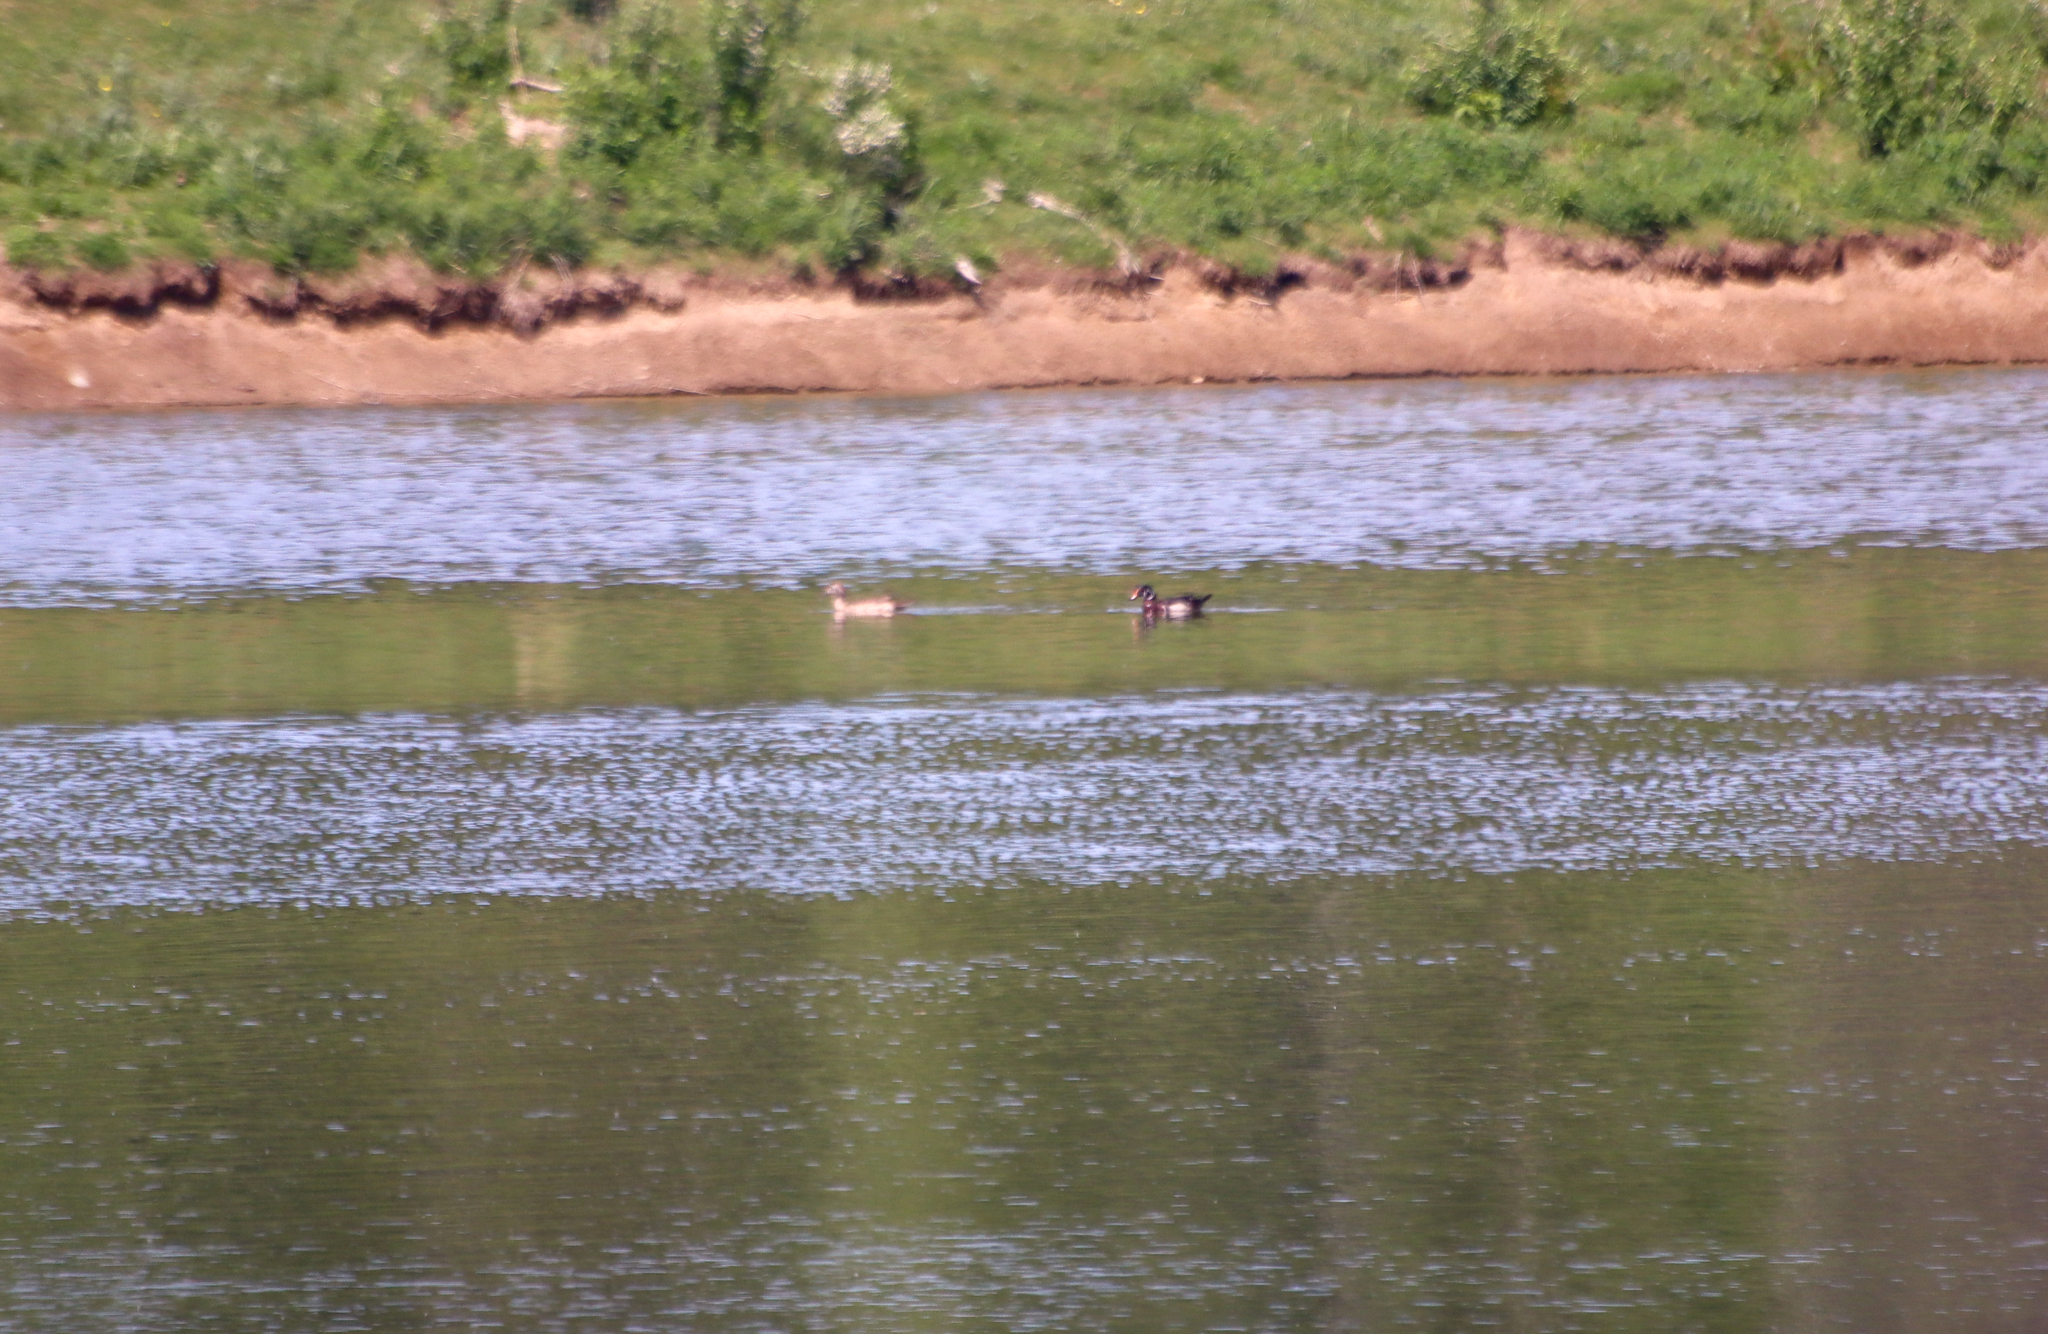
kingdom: Animalia
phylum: Chordata
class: Aves
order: Anseriformes
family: Anatidae
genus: Aix
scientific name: Aix sponsa
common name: Wood duck
